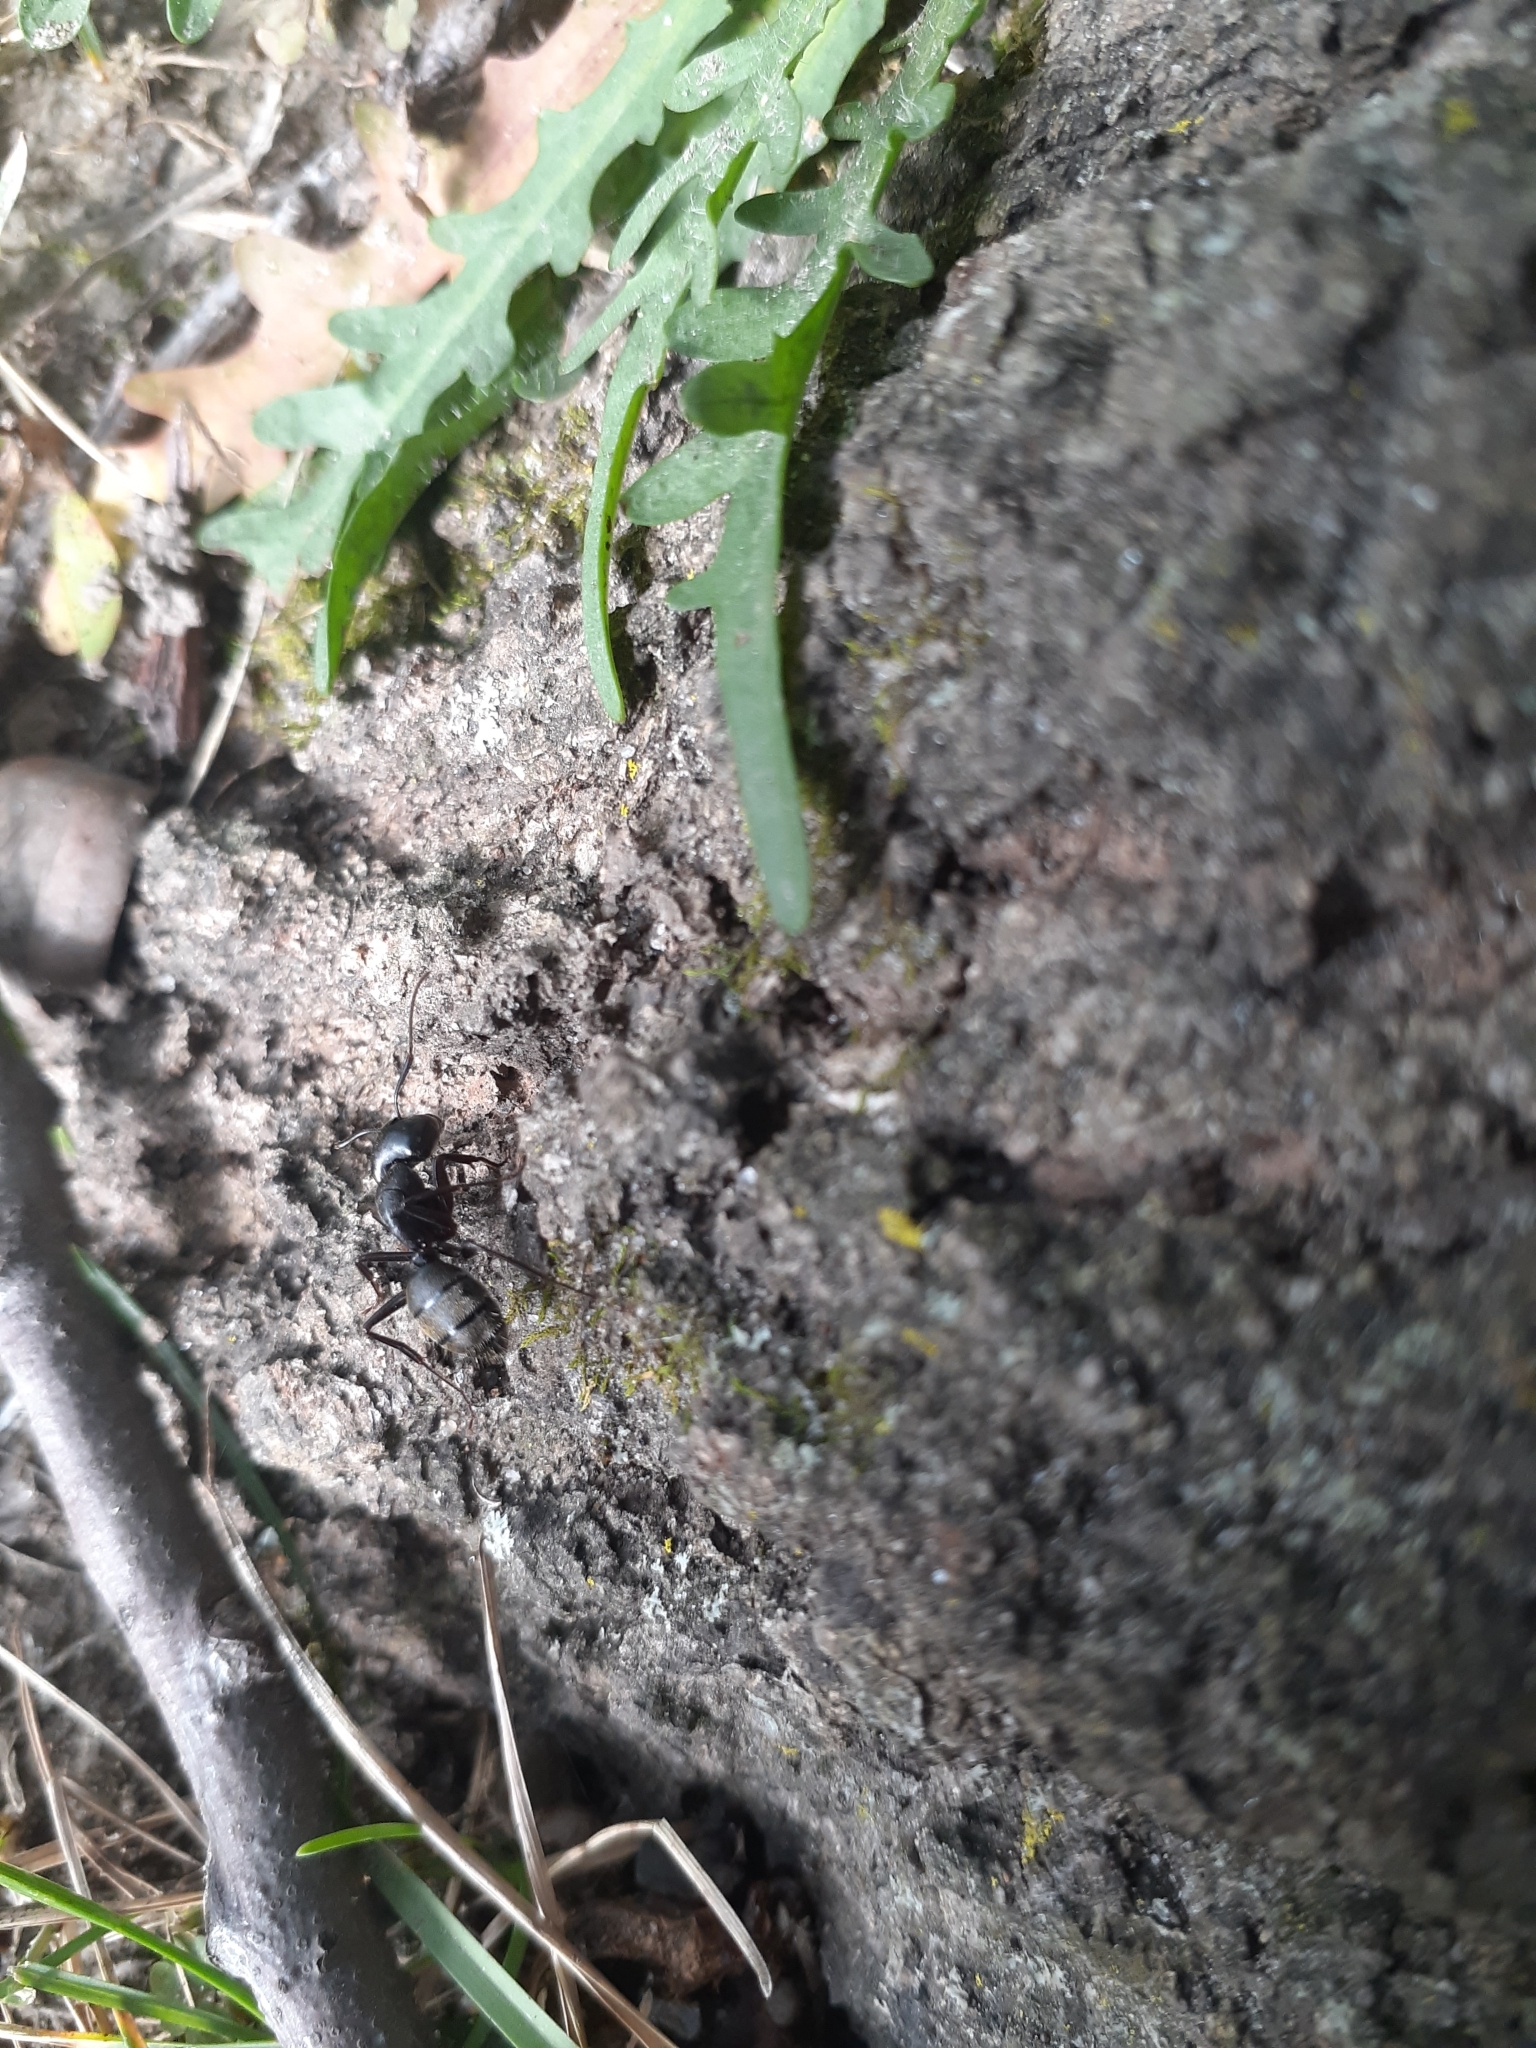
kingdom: Animalia
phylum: Arthropoda
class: Insecta
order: Hymenoptera
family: Formicidae
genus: Camponotus
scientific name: Camponotus pennsylvanicus
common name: Black carpenter ant
